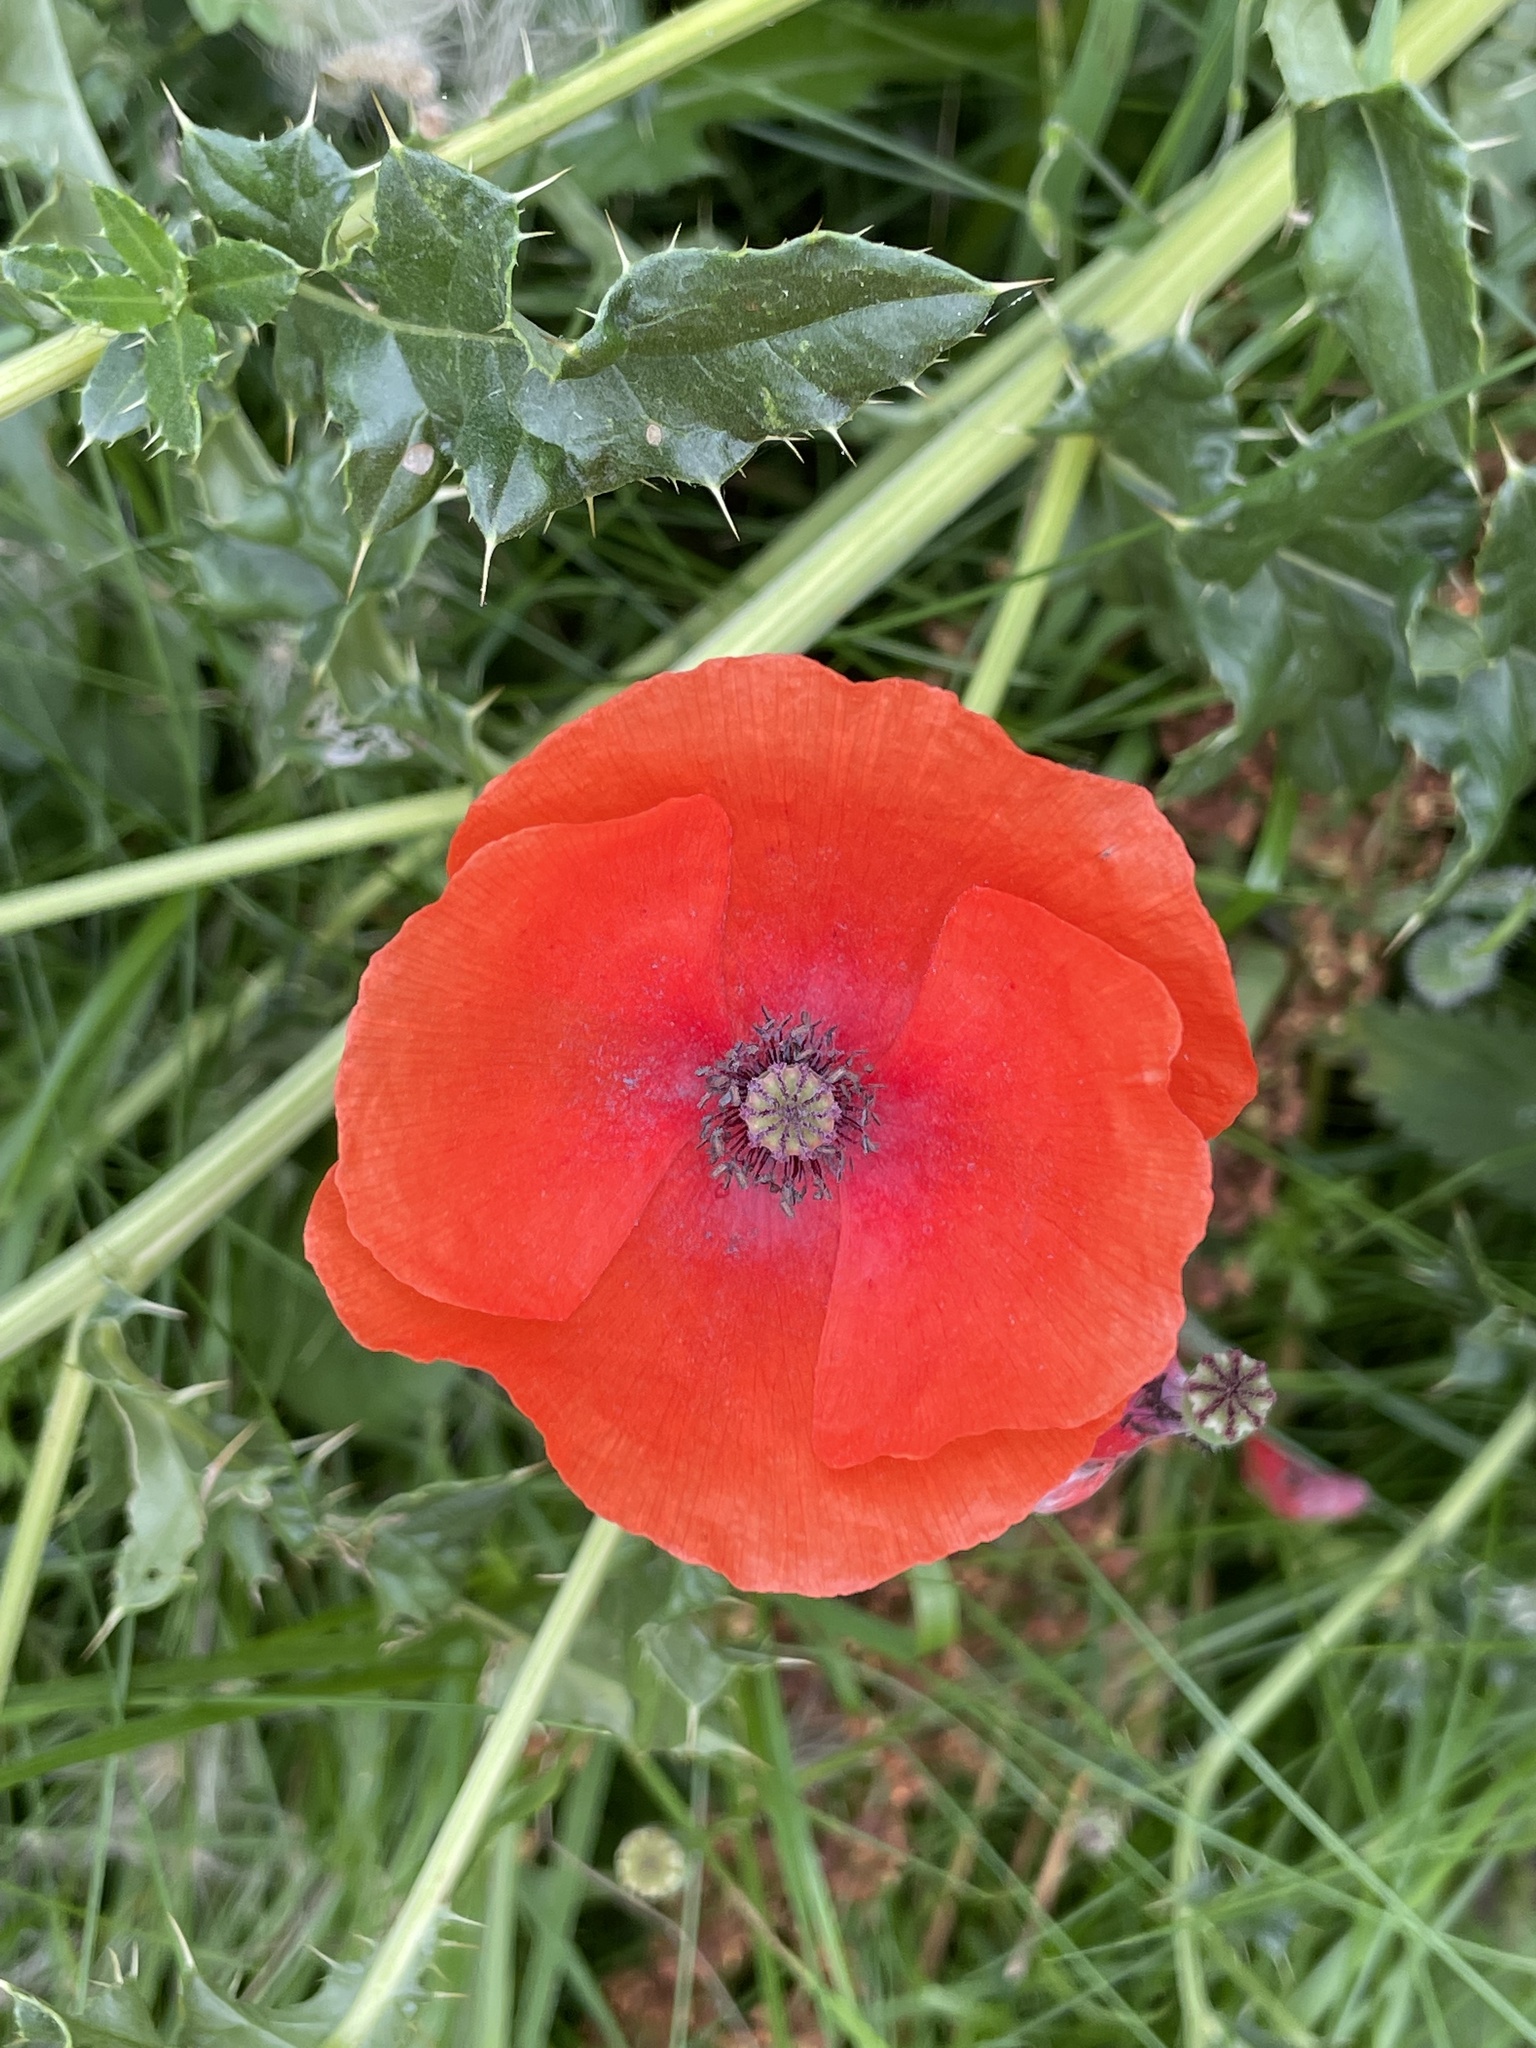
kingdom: Plantae
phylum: Tracheophyta
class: Magnoliopsida
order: Ranunculales
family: Papaveraceae
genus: Papaver
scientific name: Papaver rhoeas
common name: Corn poppy
